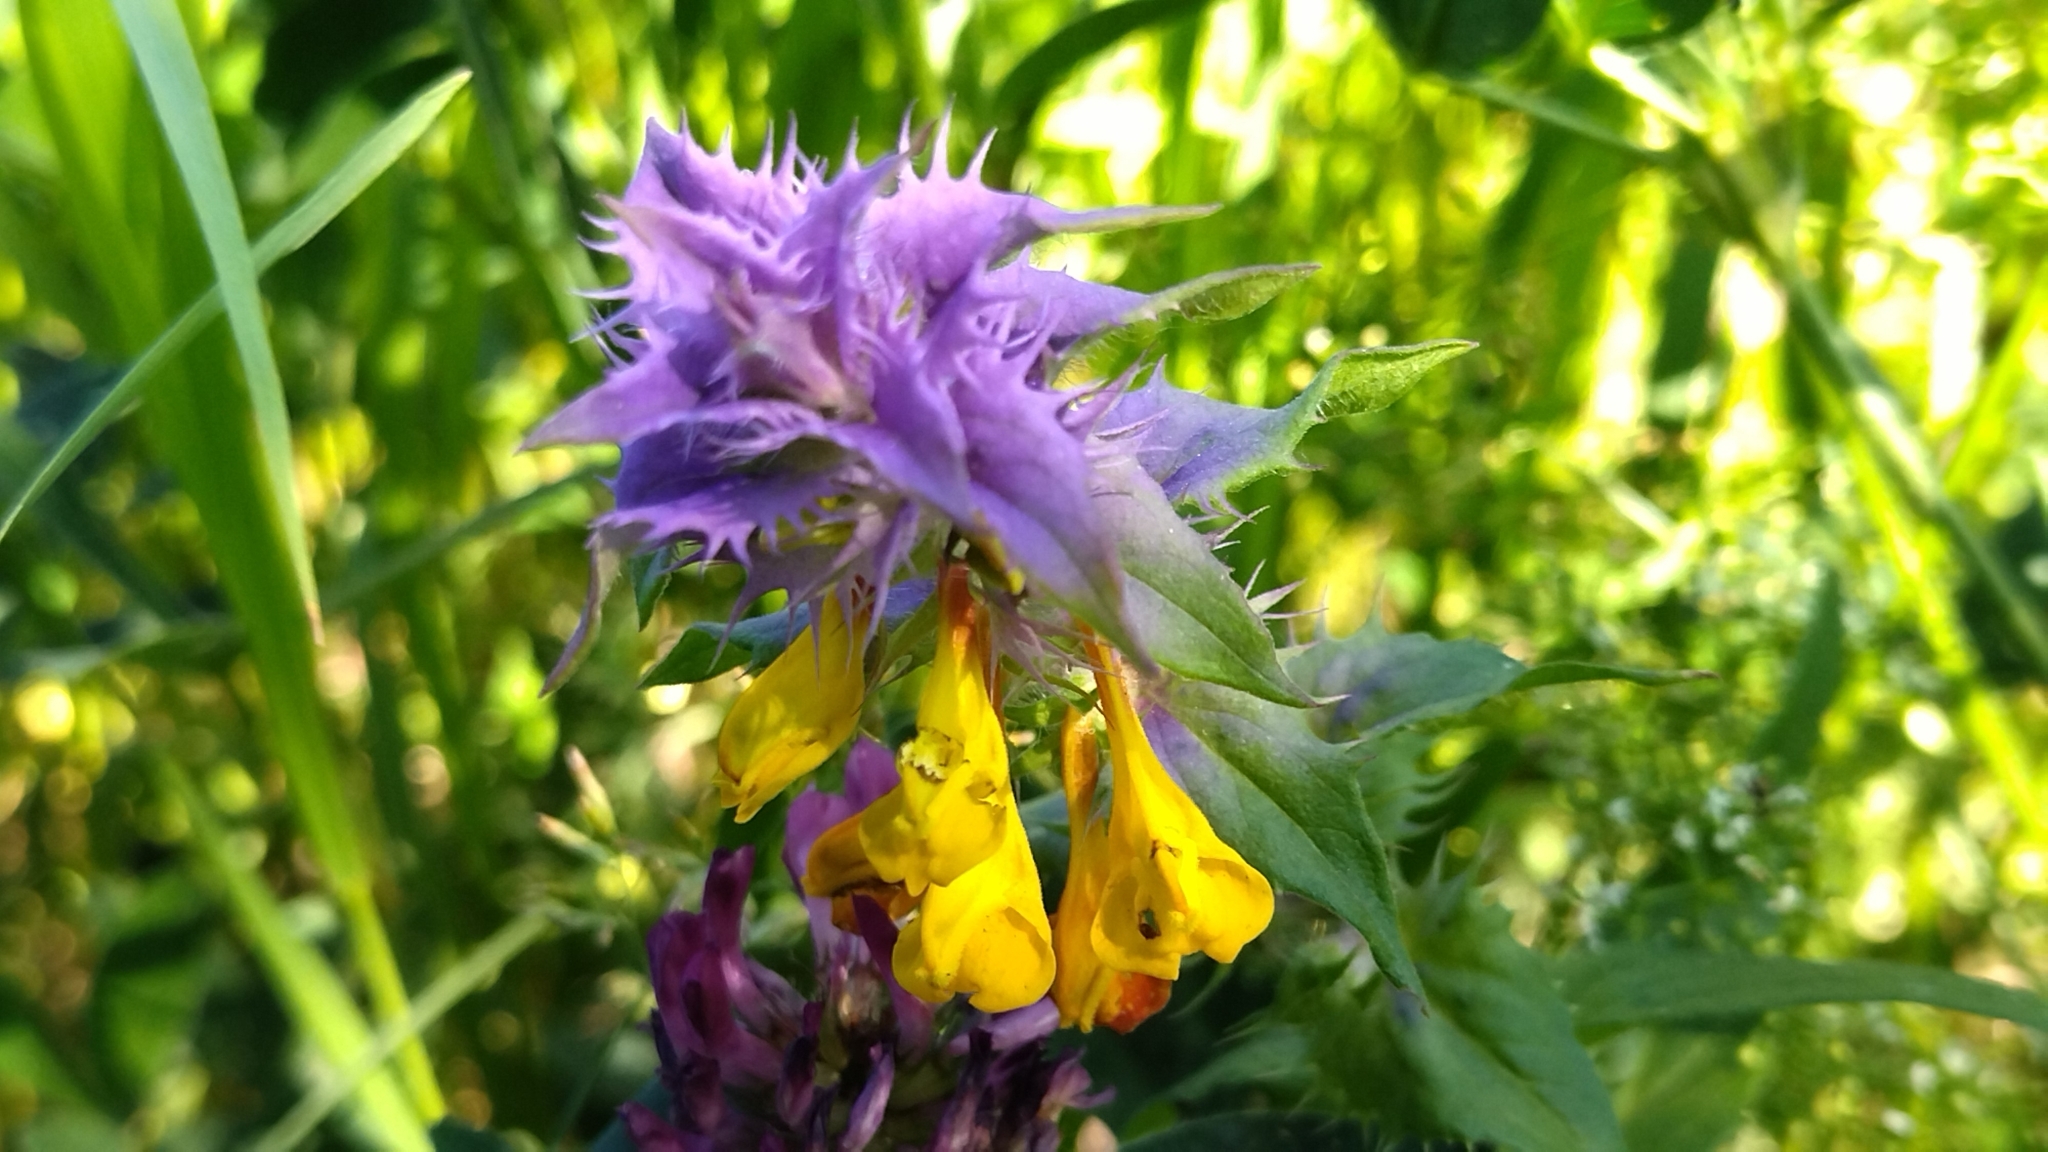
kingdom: Plantae
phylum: Tracheophyta
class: Magnoliopsida
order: Lamiales
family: Orobanchaceae
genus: Melampyrum
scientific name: Melampyrum nemorosum
